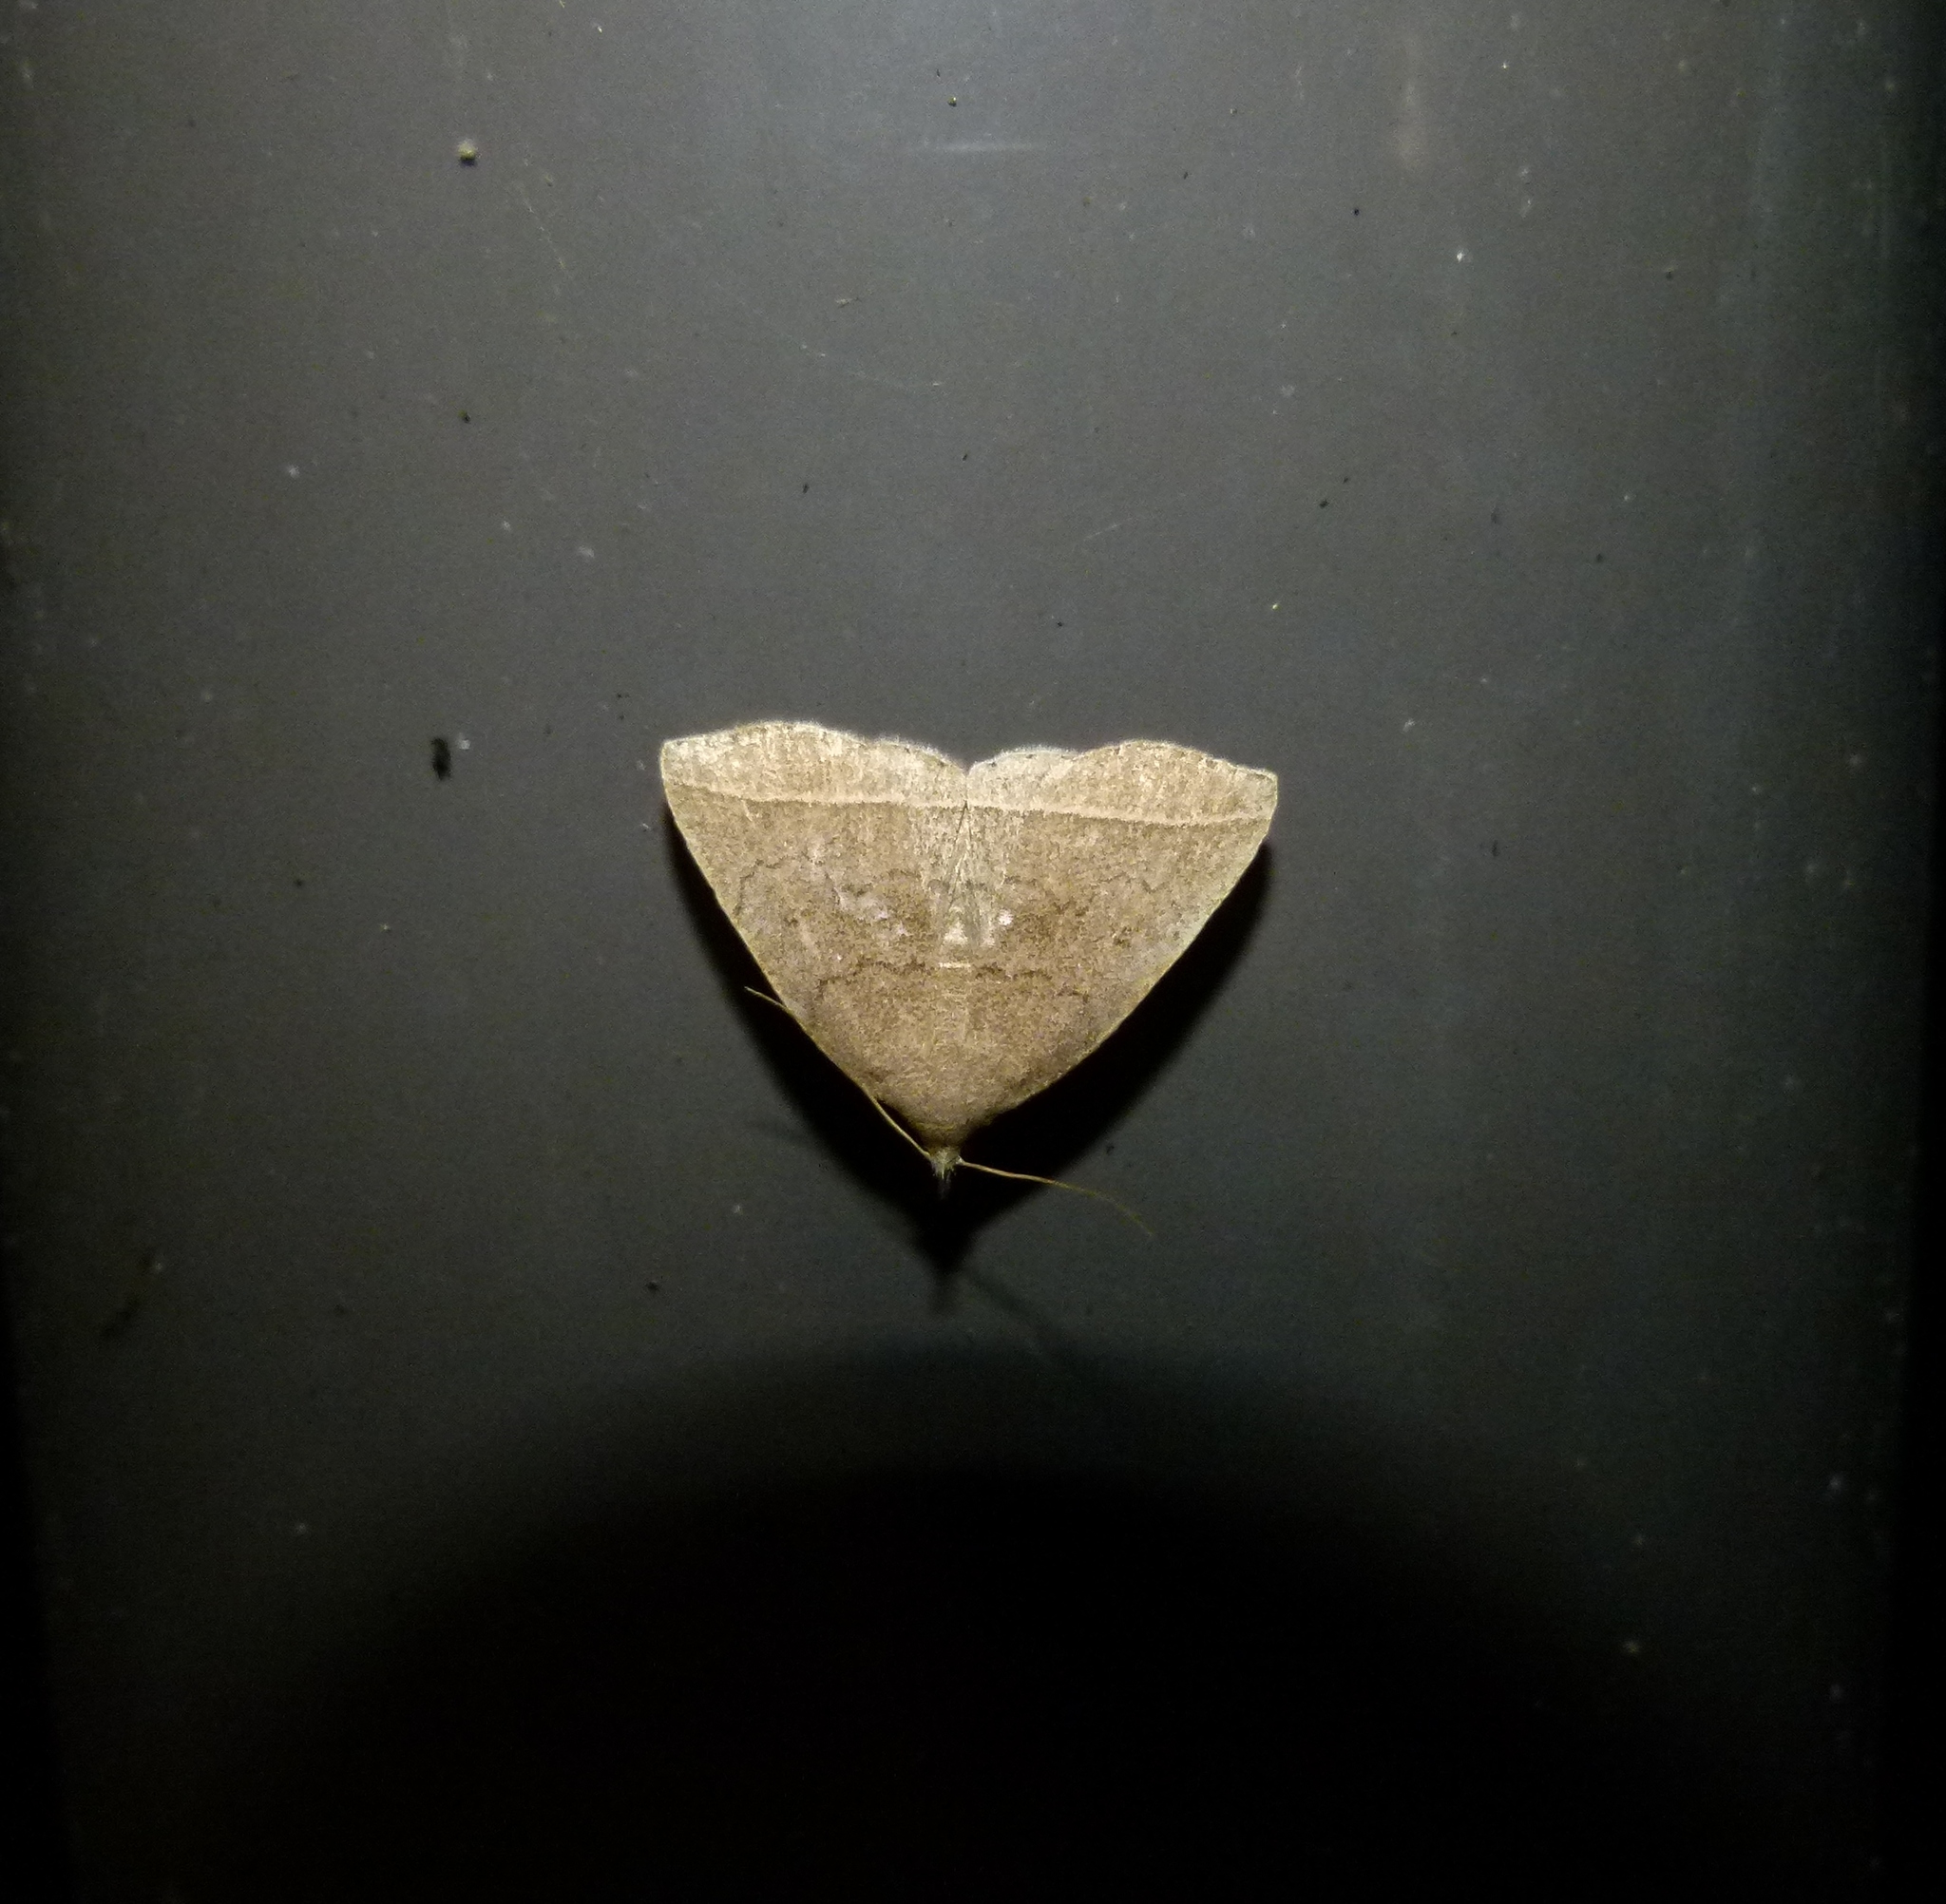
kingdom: Animalia
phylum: Arthropoda
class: Insecta
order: Lepidoptera
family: Erebidae
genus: Zanclognatha
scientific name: Zanclognatha marcidilinea
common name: Yellowish fan-foot
